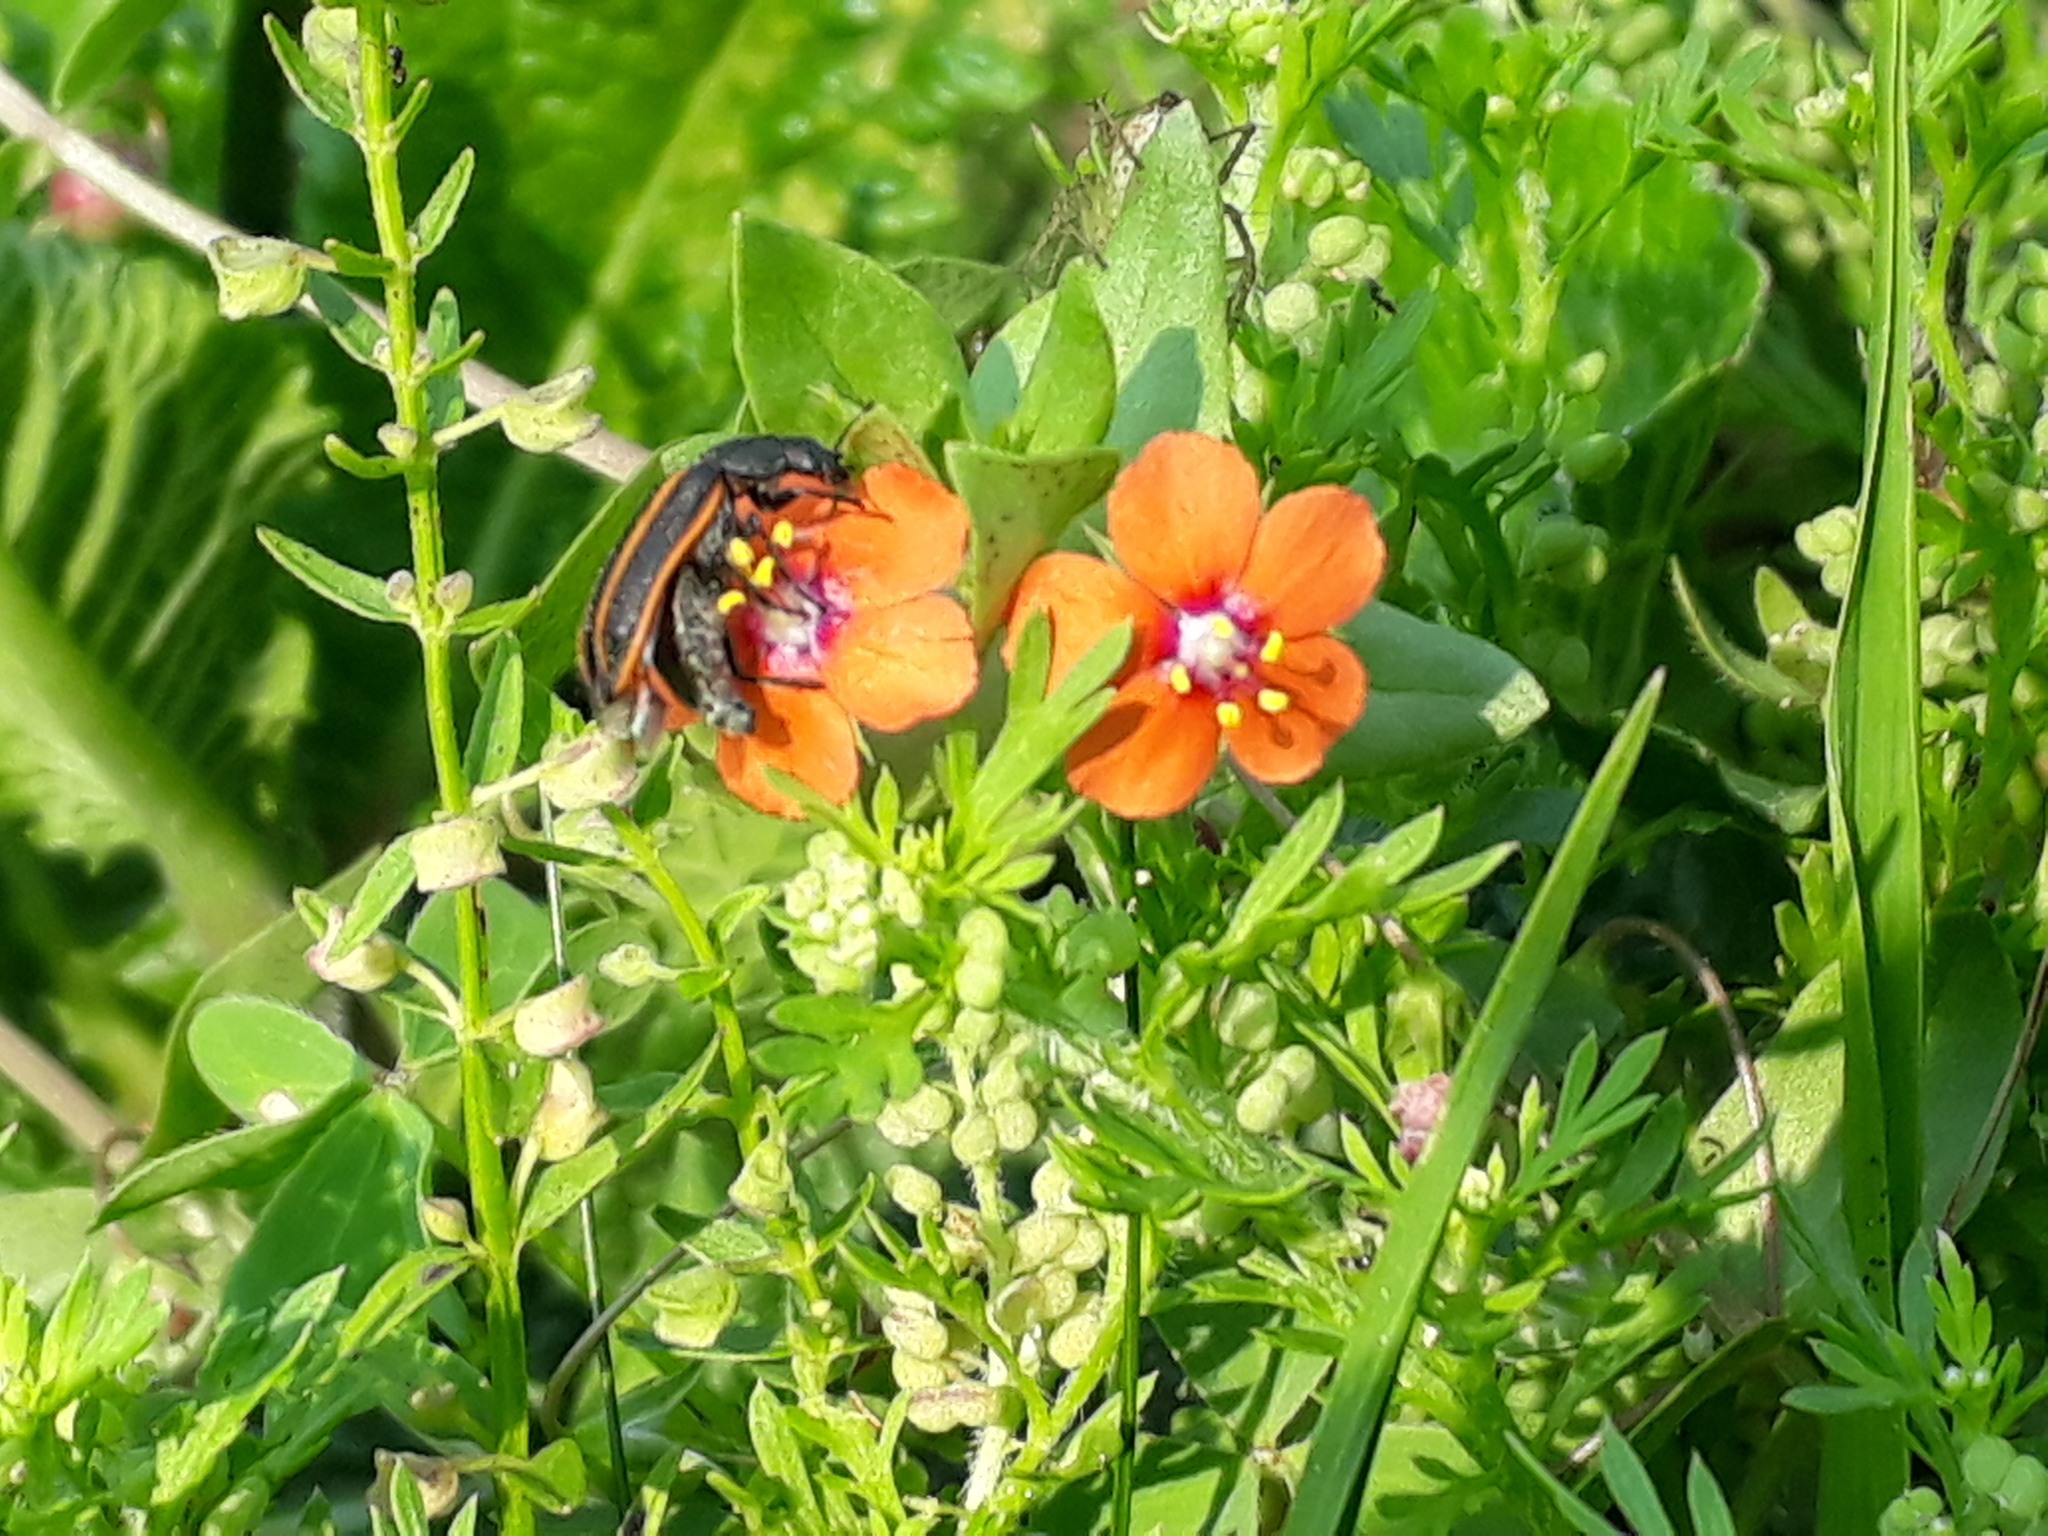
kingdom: Plantae
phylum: Tracheophyta
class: Magnoliopsida
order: Ericales
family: Primulaceae
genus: Lysimachia
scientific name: Lysimachia arvensis
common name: Scarlet pimpernel
